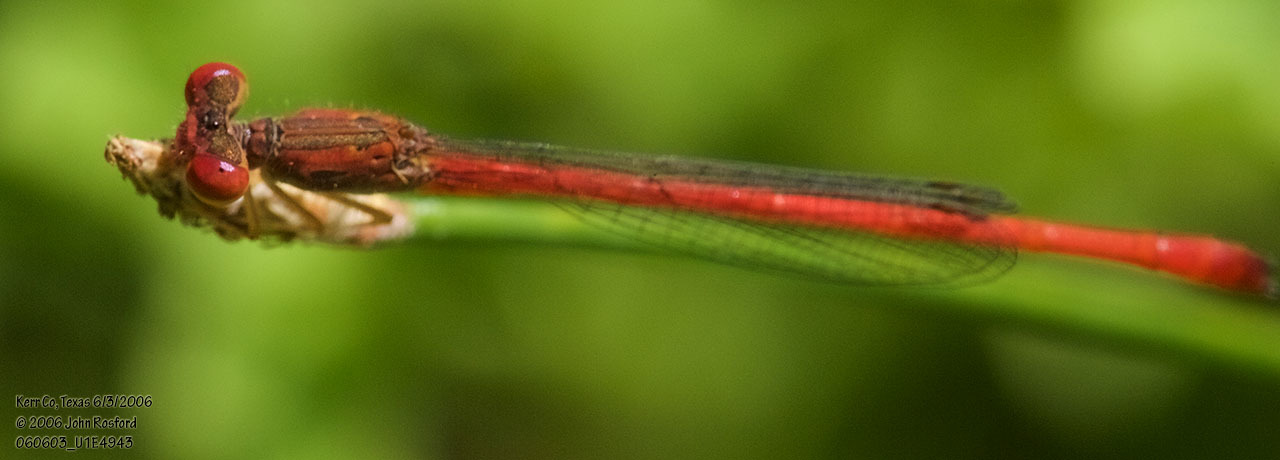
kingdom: Animalia
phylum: Arthropoda
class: Insecta
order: Odonata
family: Coenagrionidae
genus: Telebasis
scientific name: Telebasis salva
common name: Desert firetail
